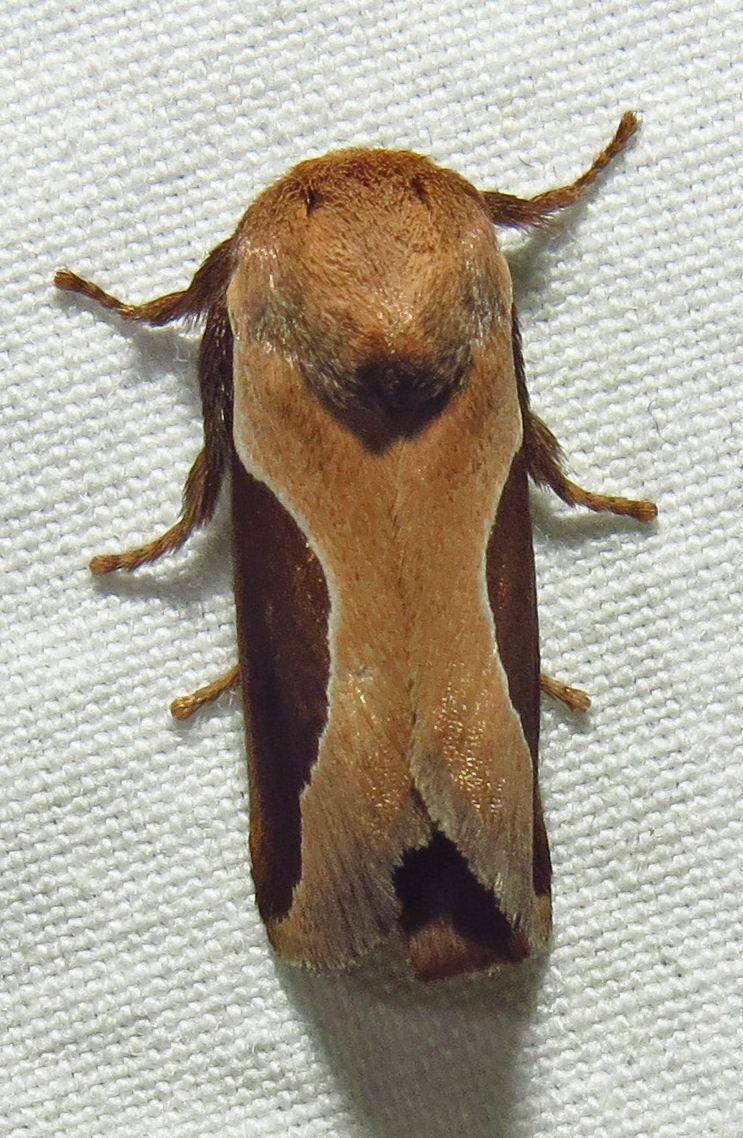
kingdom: Animalia
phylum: Arthropoda
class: Insecta
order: Lepidoptera
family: Limacodidae
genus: Prolimacodes
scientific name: Prolimacodes badia
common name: Skiff moth
